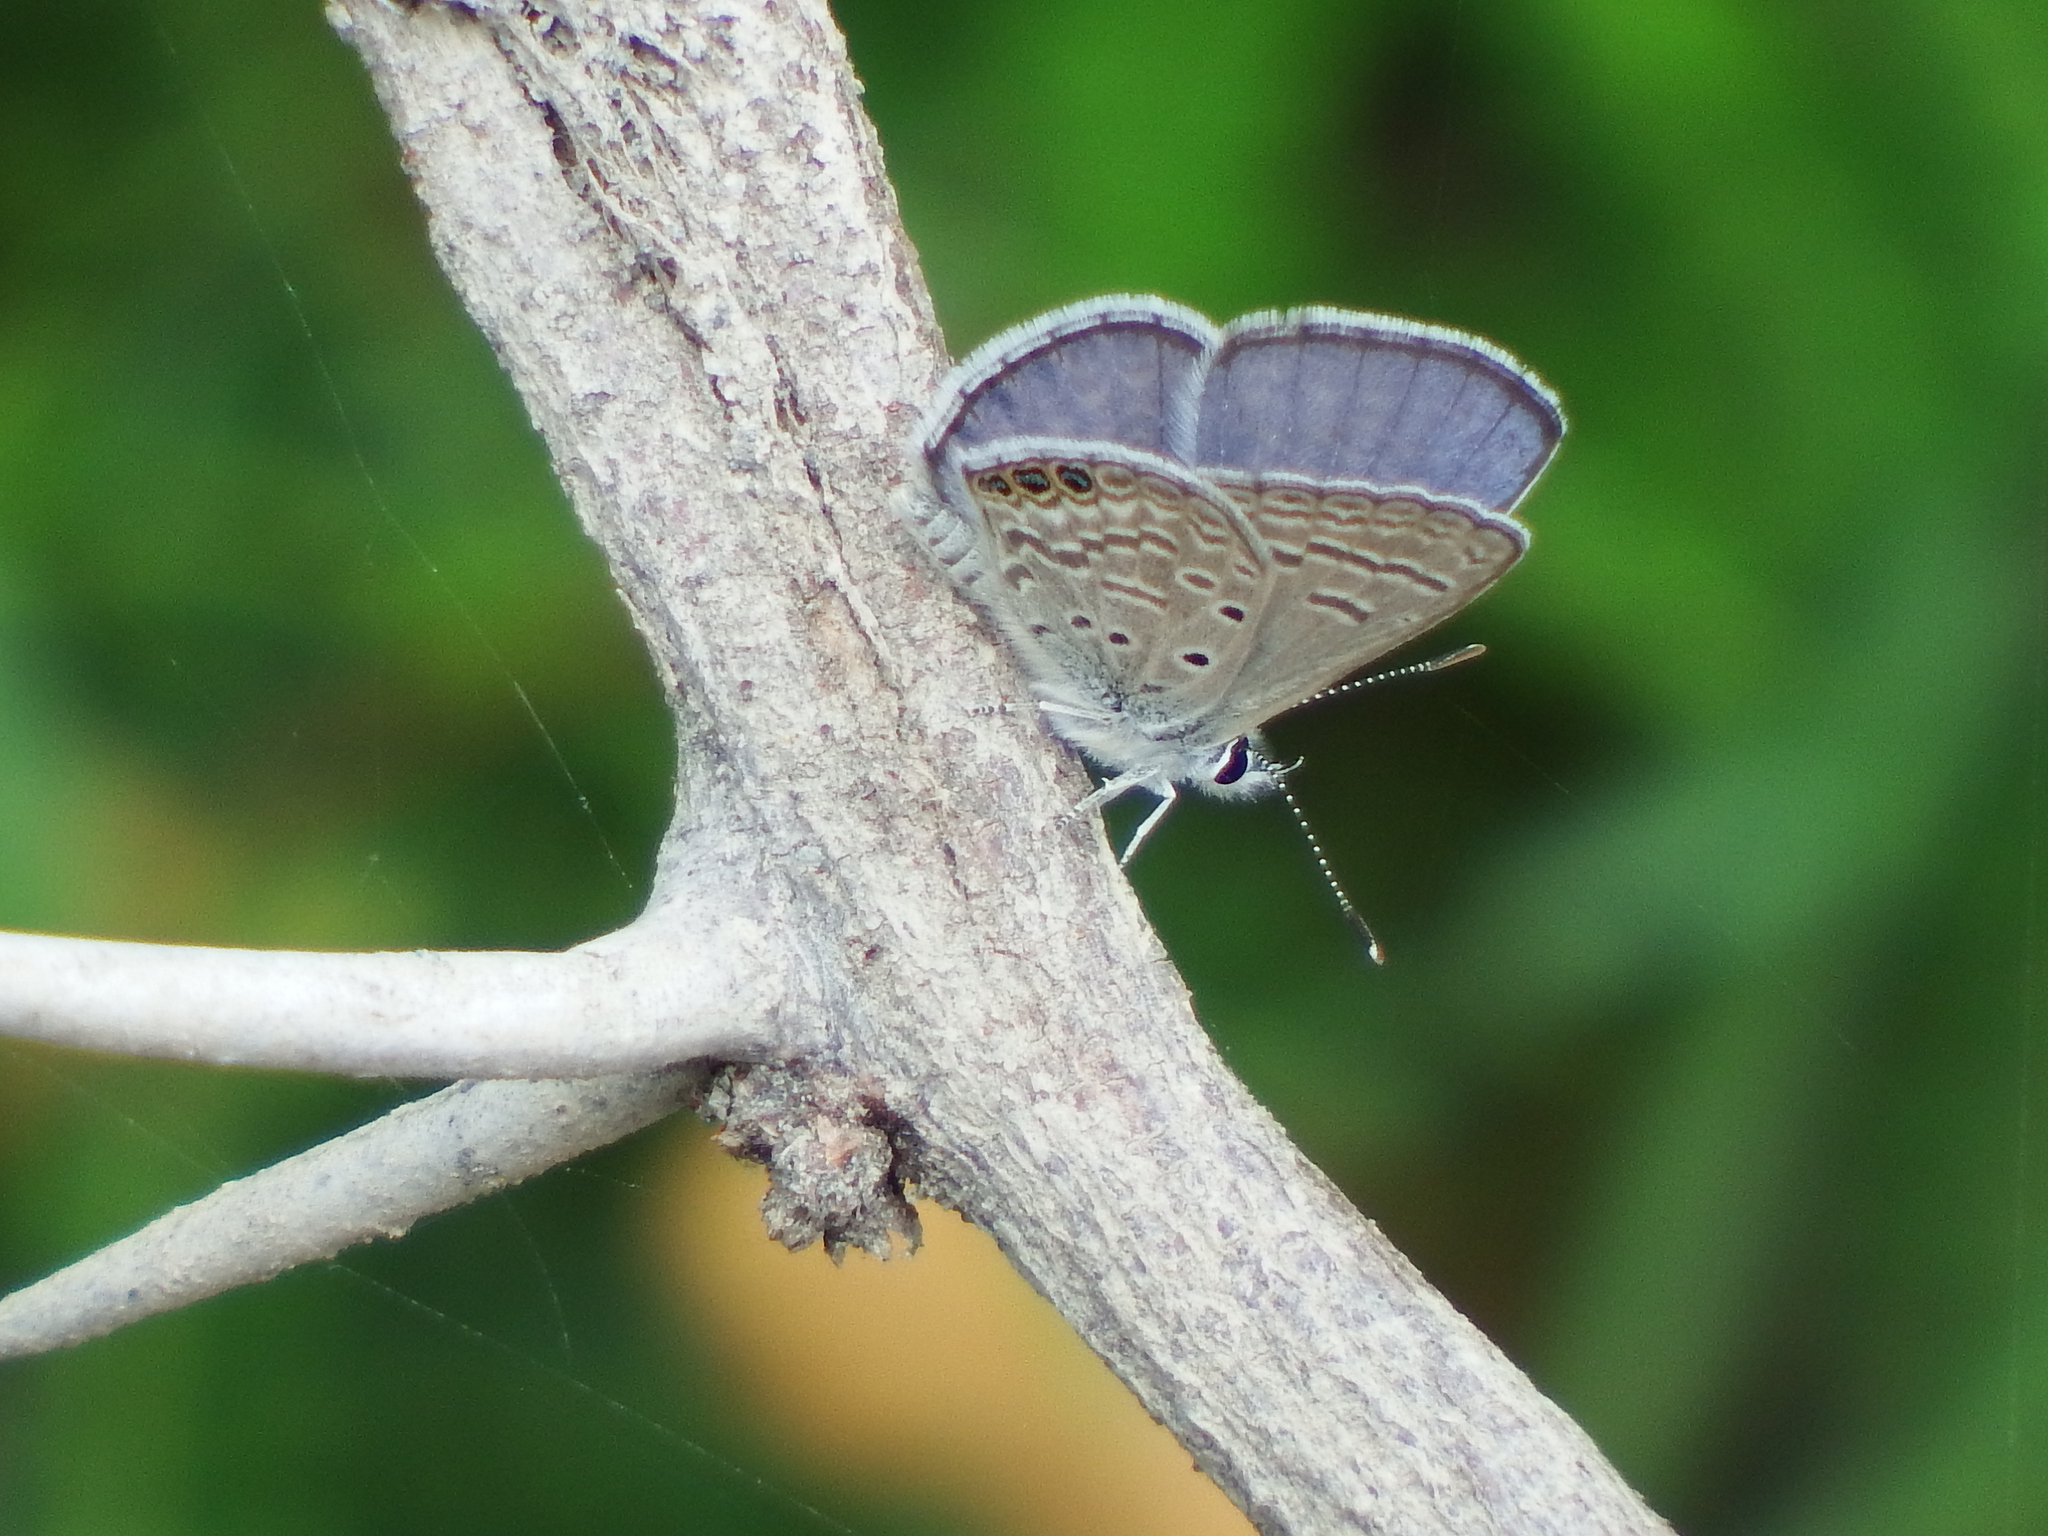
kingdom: Animalia
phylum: Arthropoda
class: Insecta
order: Lepidoptera
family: Lycaenidae
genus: Hemiargus
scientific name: Hemiargus ramon
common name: Ramon blue
